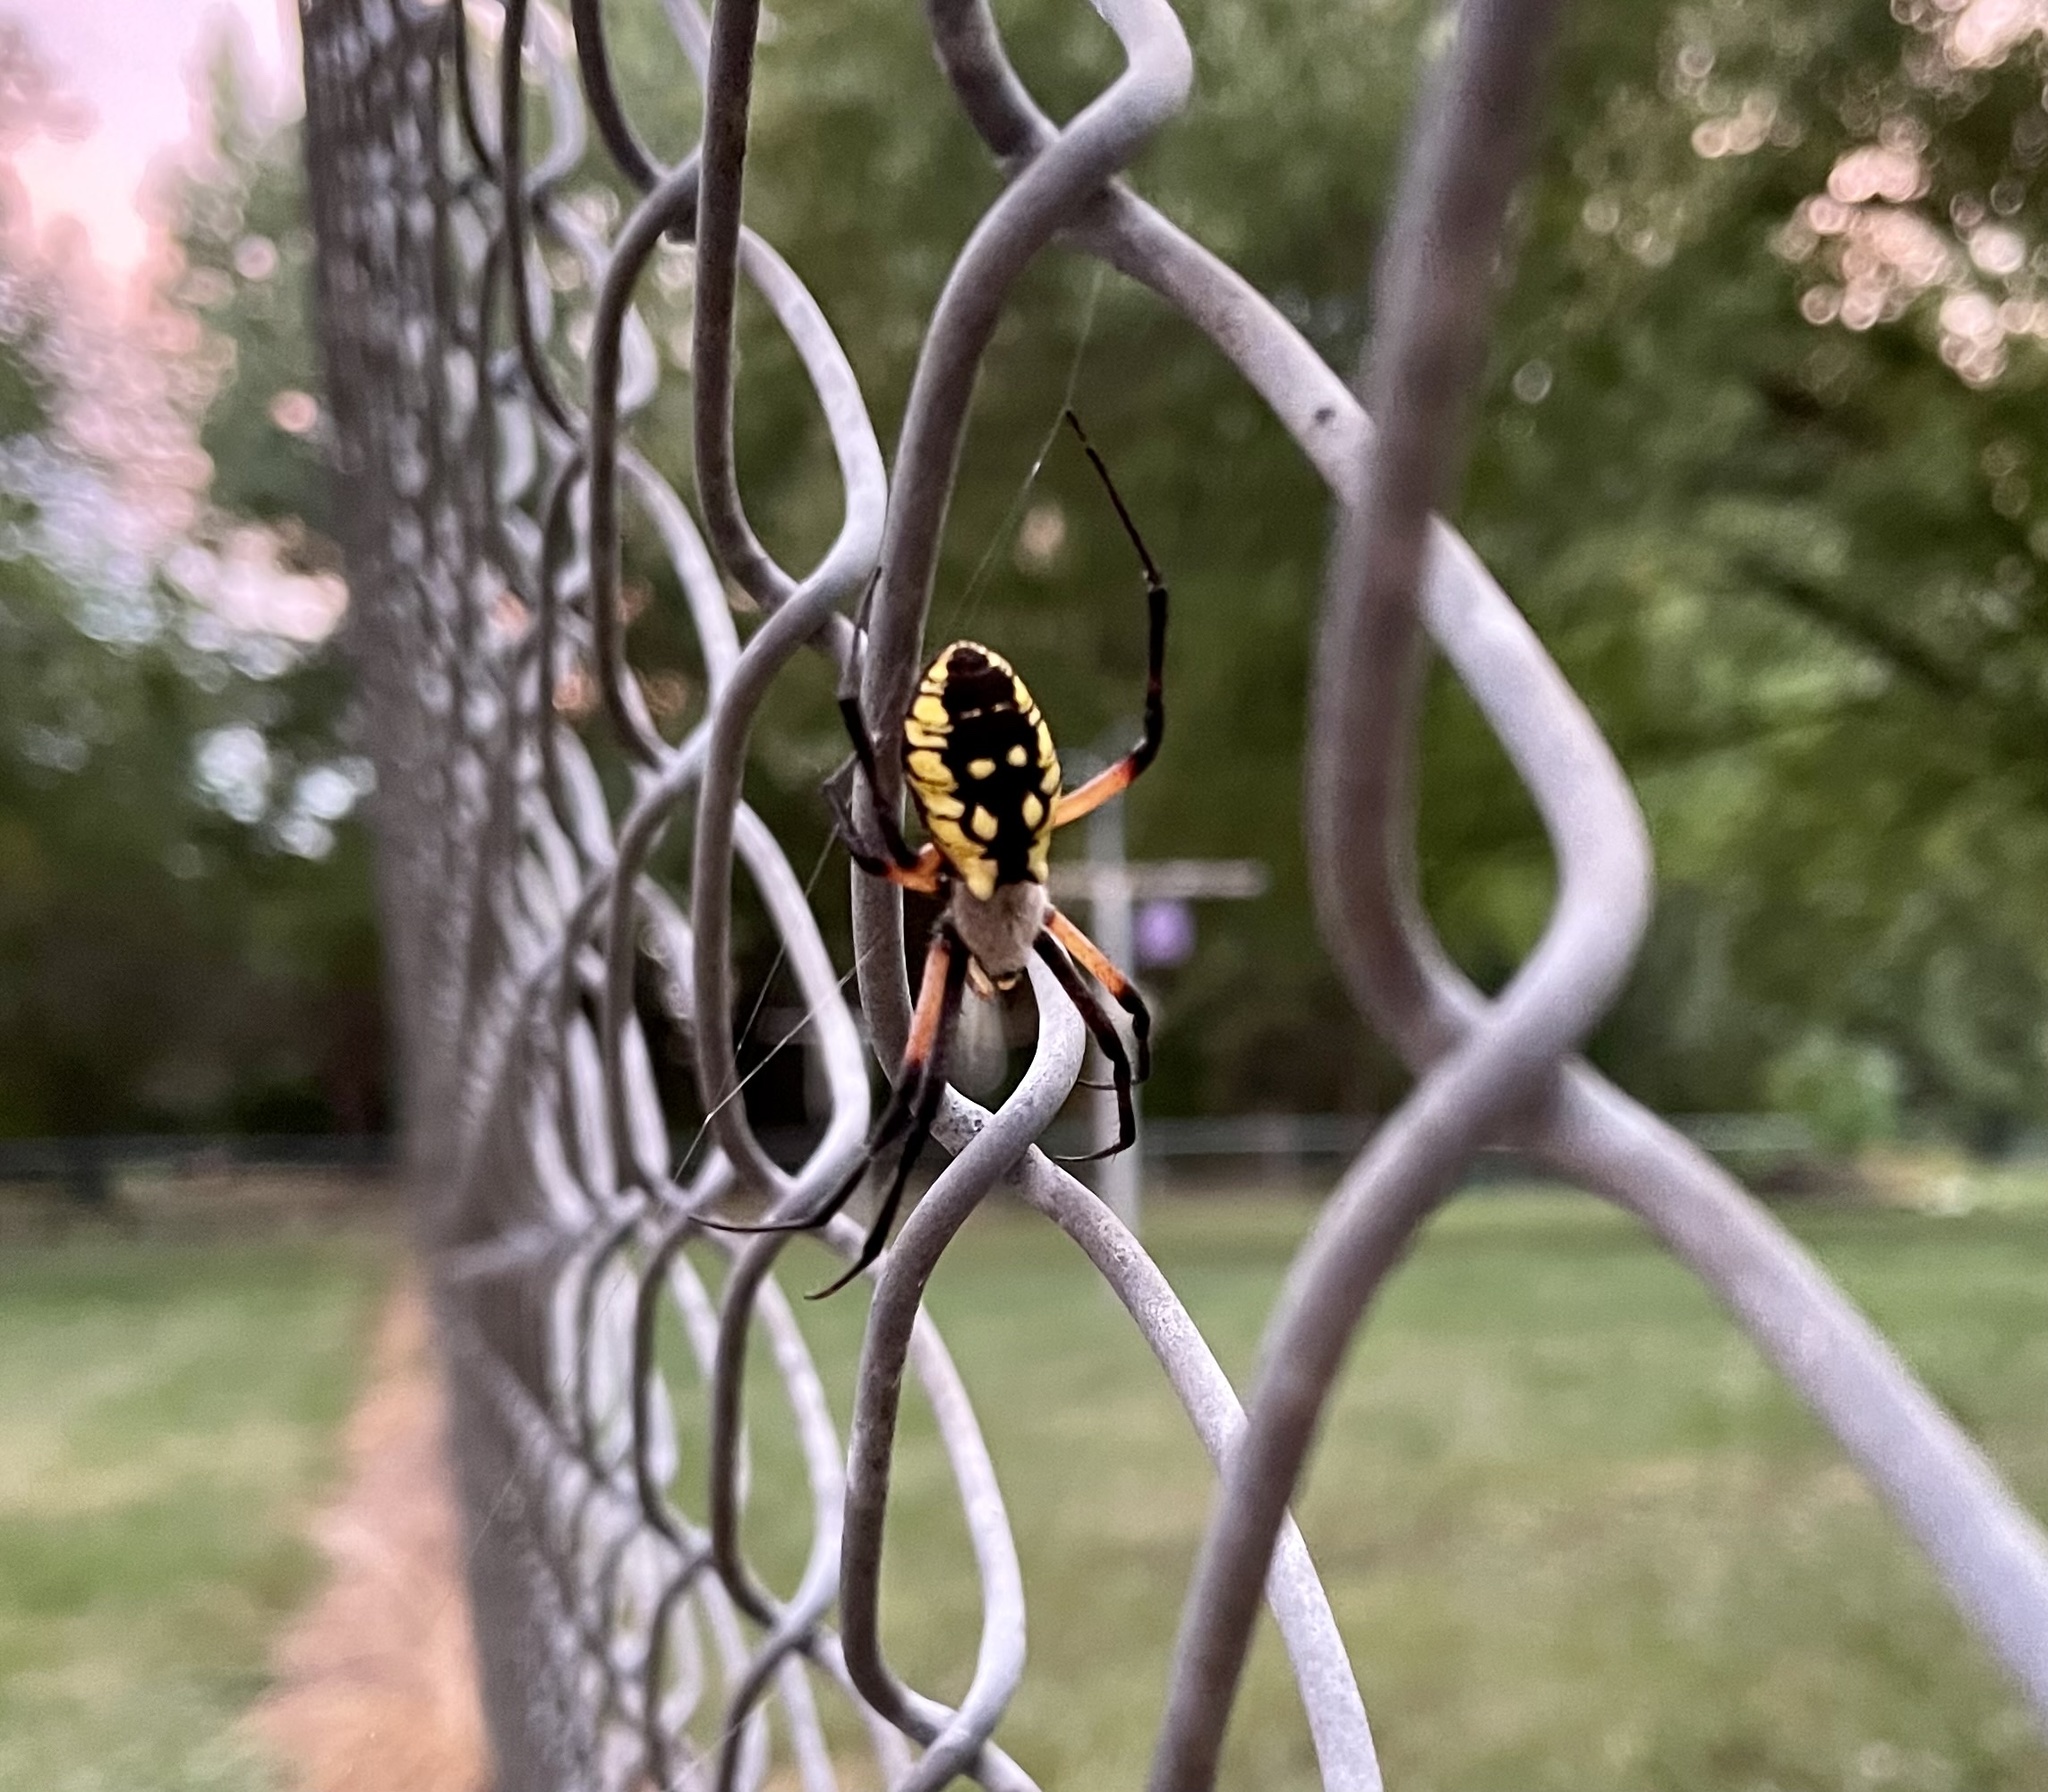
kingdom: Animalia
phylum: Arthropoda
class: Arachnida
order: Araneae
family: Araneidae
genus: Argiope
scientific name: Argiope aurantia
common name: Orb weavers
